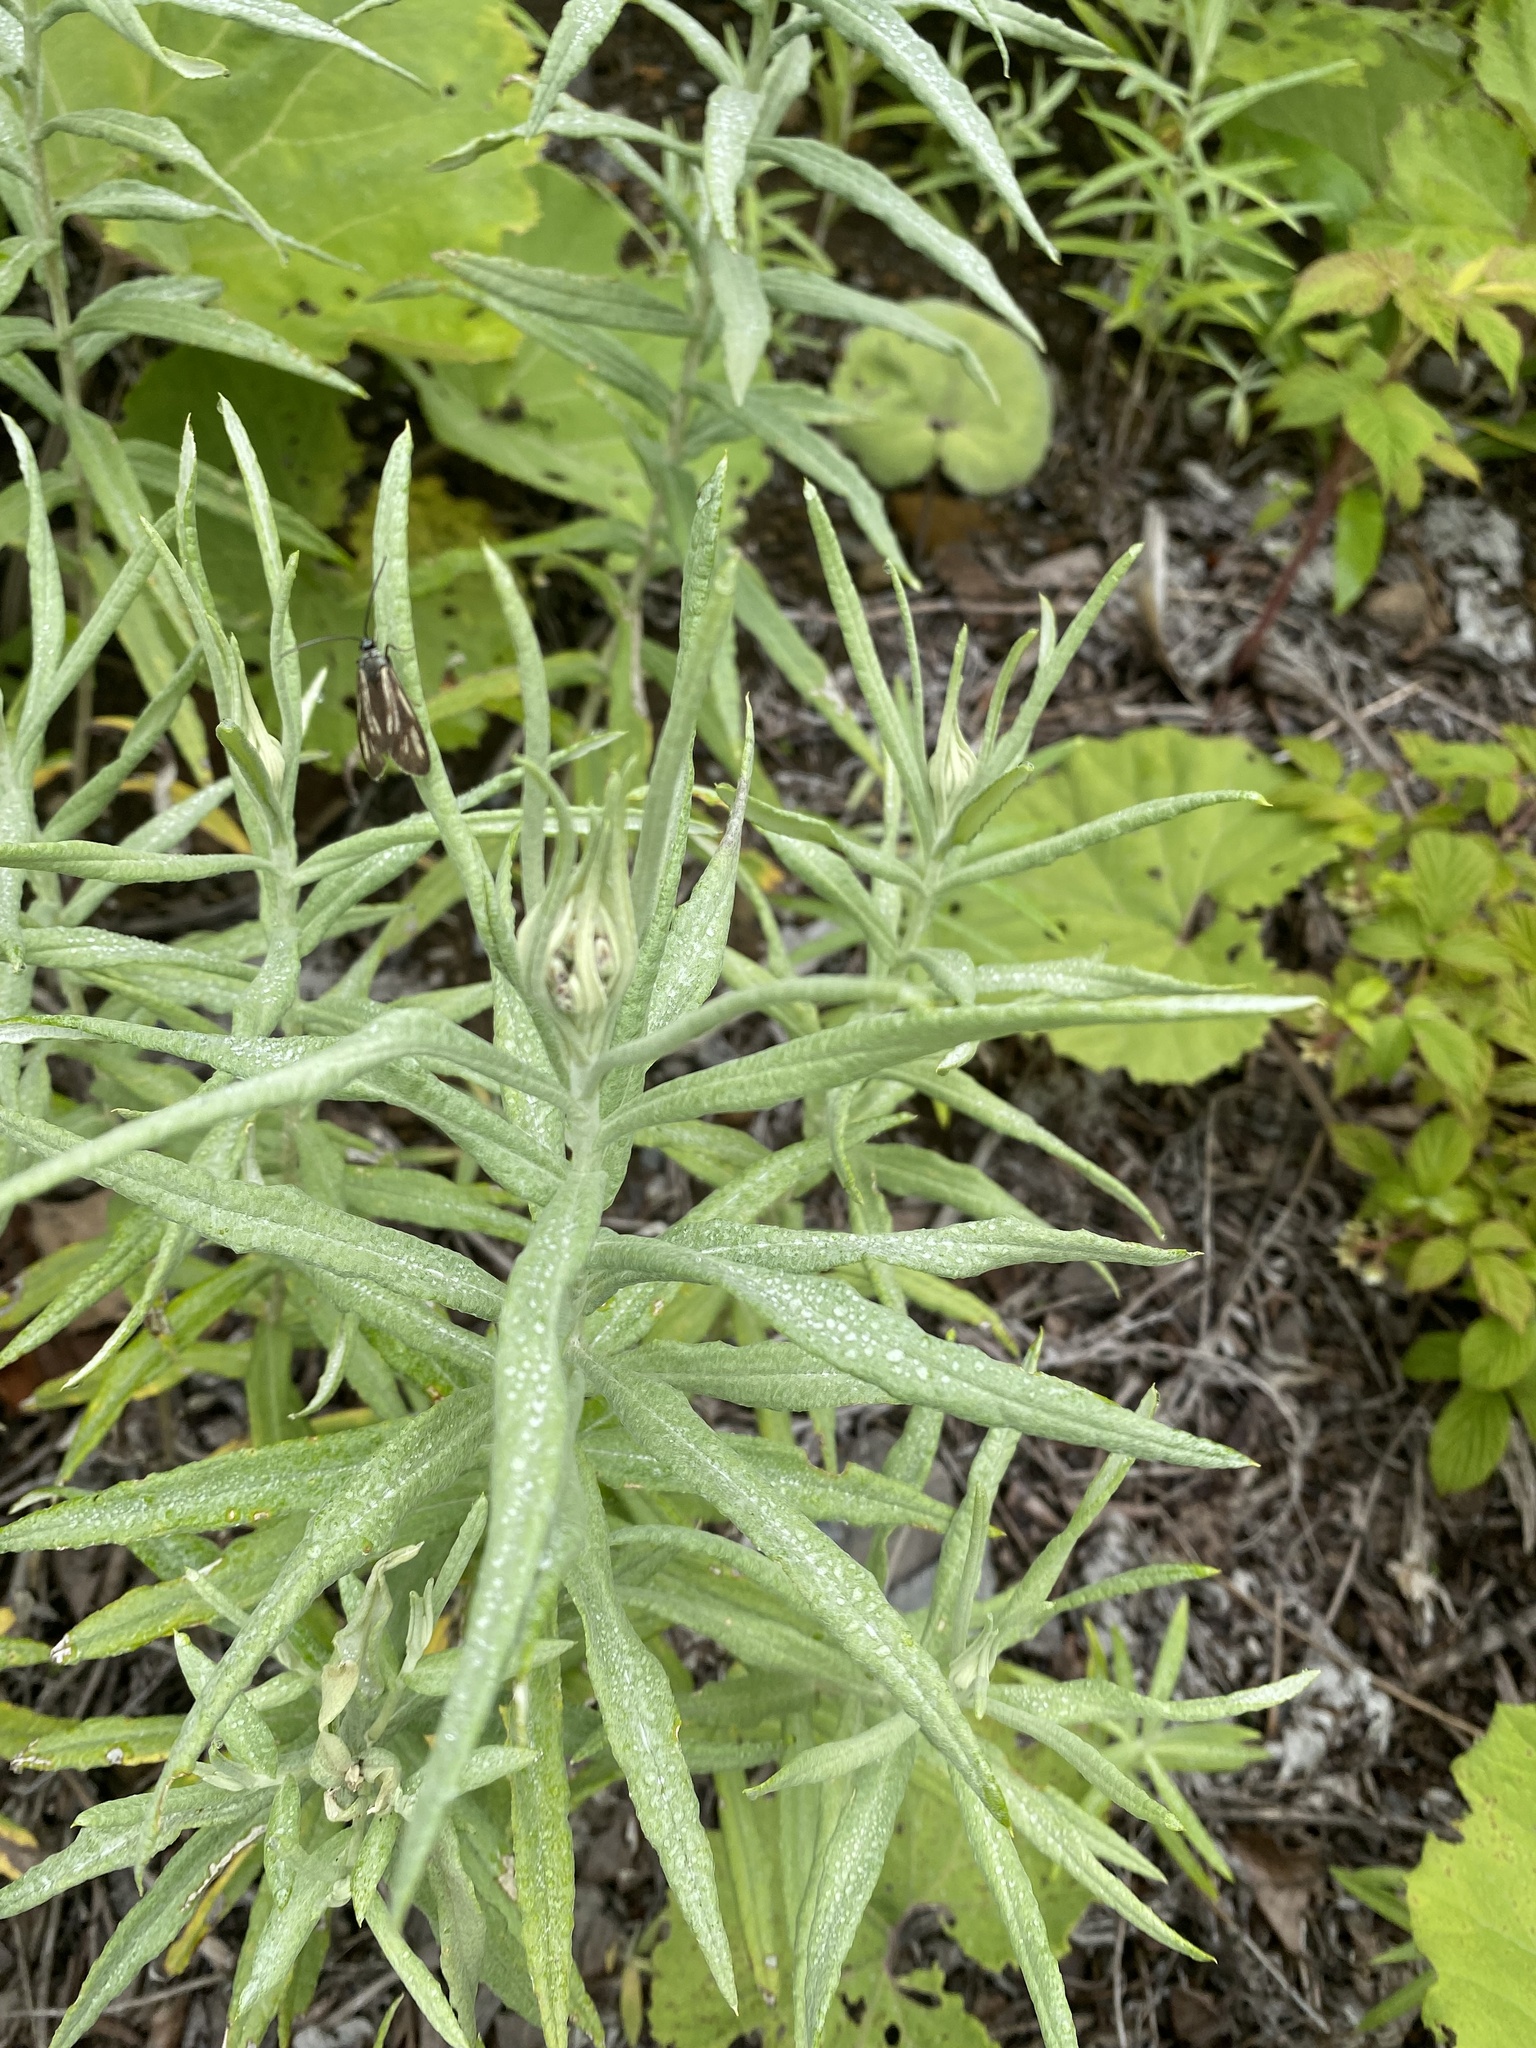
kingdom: Plantae
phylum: Tracheophyta
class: Magnoliopsida
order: Asterales
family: Asteraceae
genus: Anaphalis
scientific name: Anaphalis margaritacea
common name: Pearly everlasting
